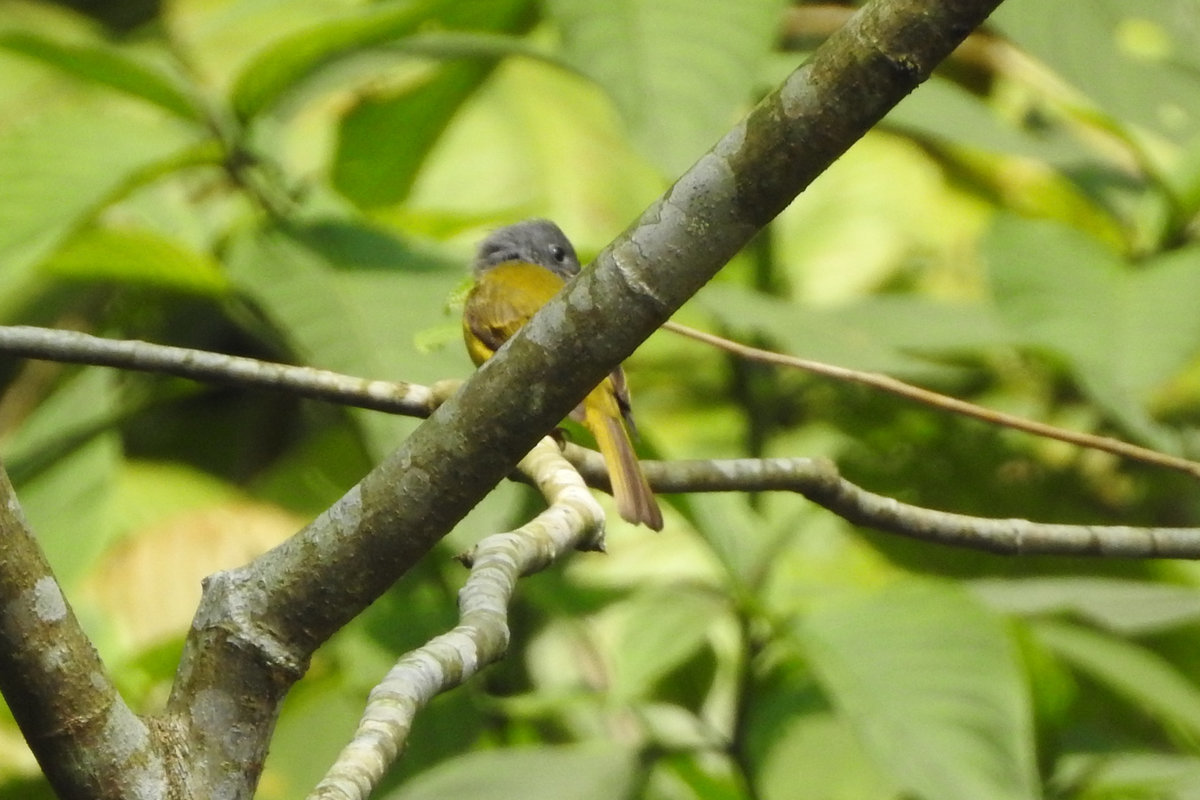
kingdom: Animalia
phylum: Chordata
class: Aves
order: Passeriformes
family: Stenostiridae
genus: Culicicapa
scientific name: Culicicapa ceylonensis
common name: Grey-headed canary-flycatcher
